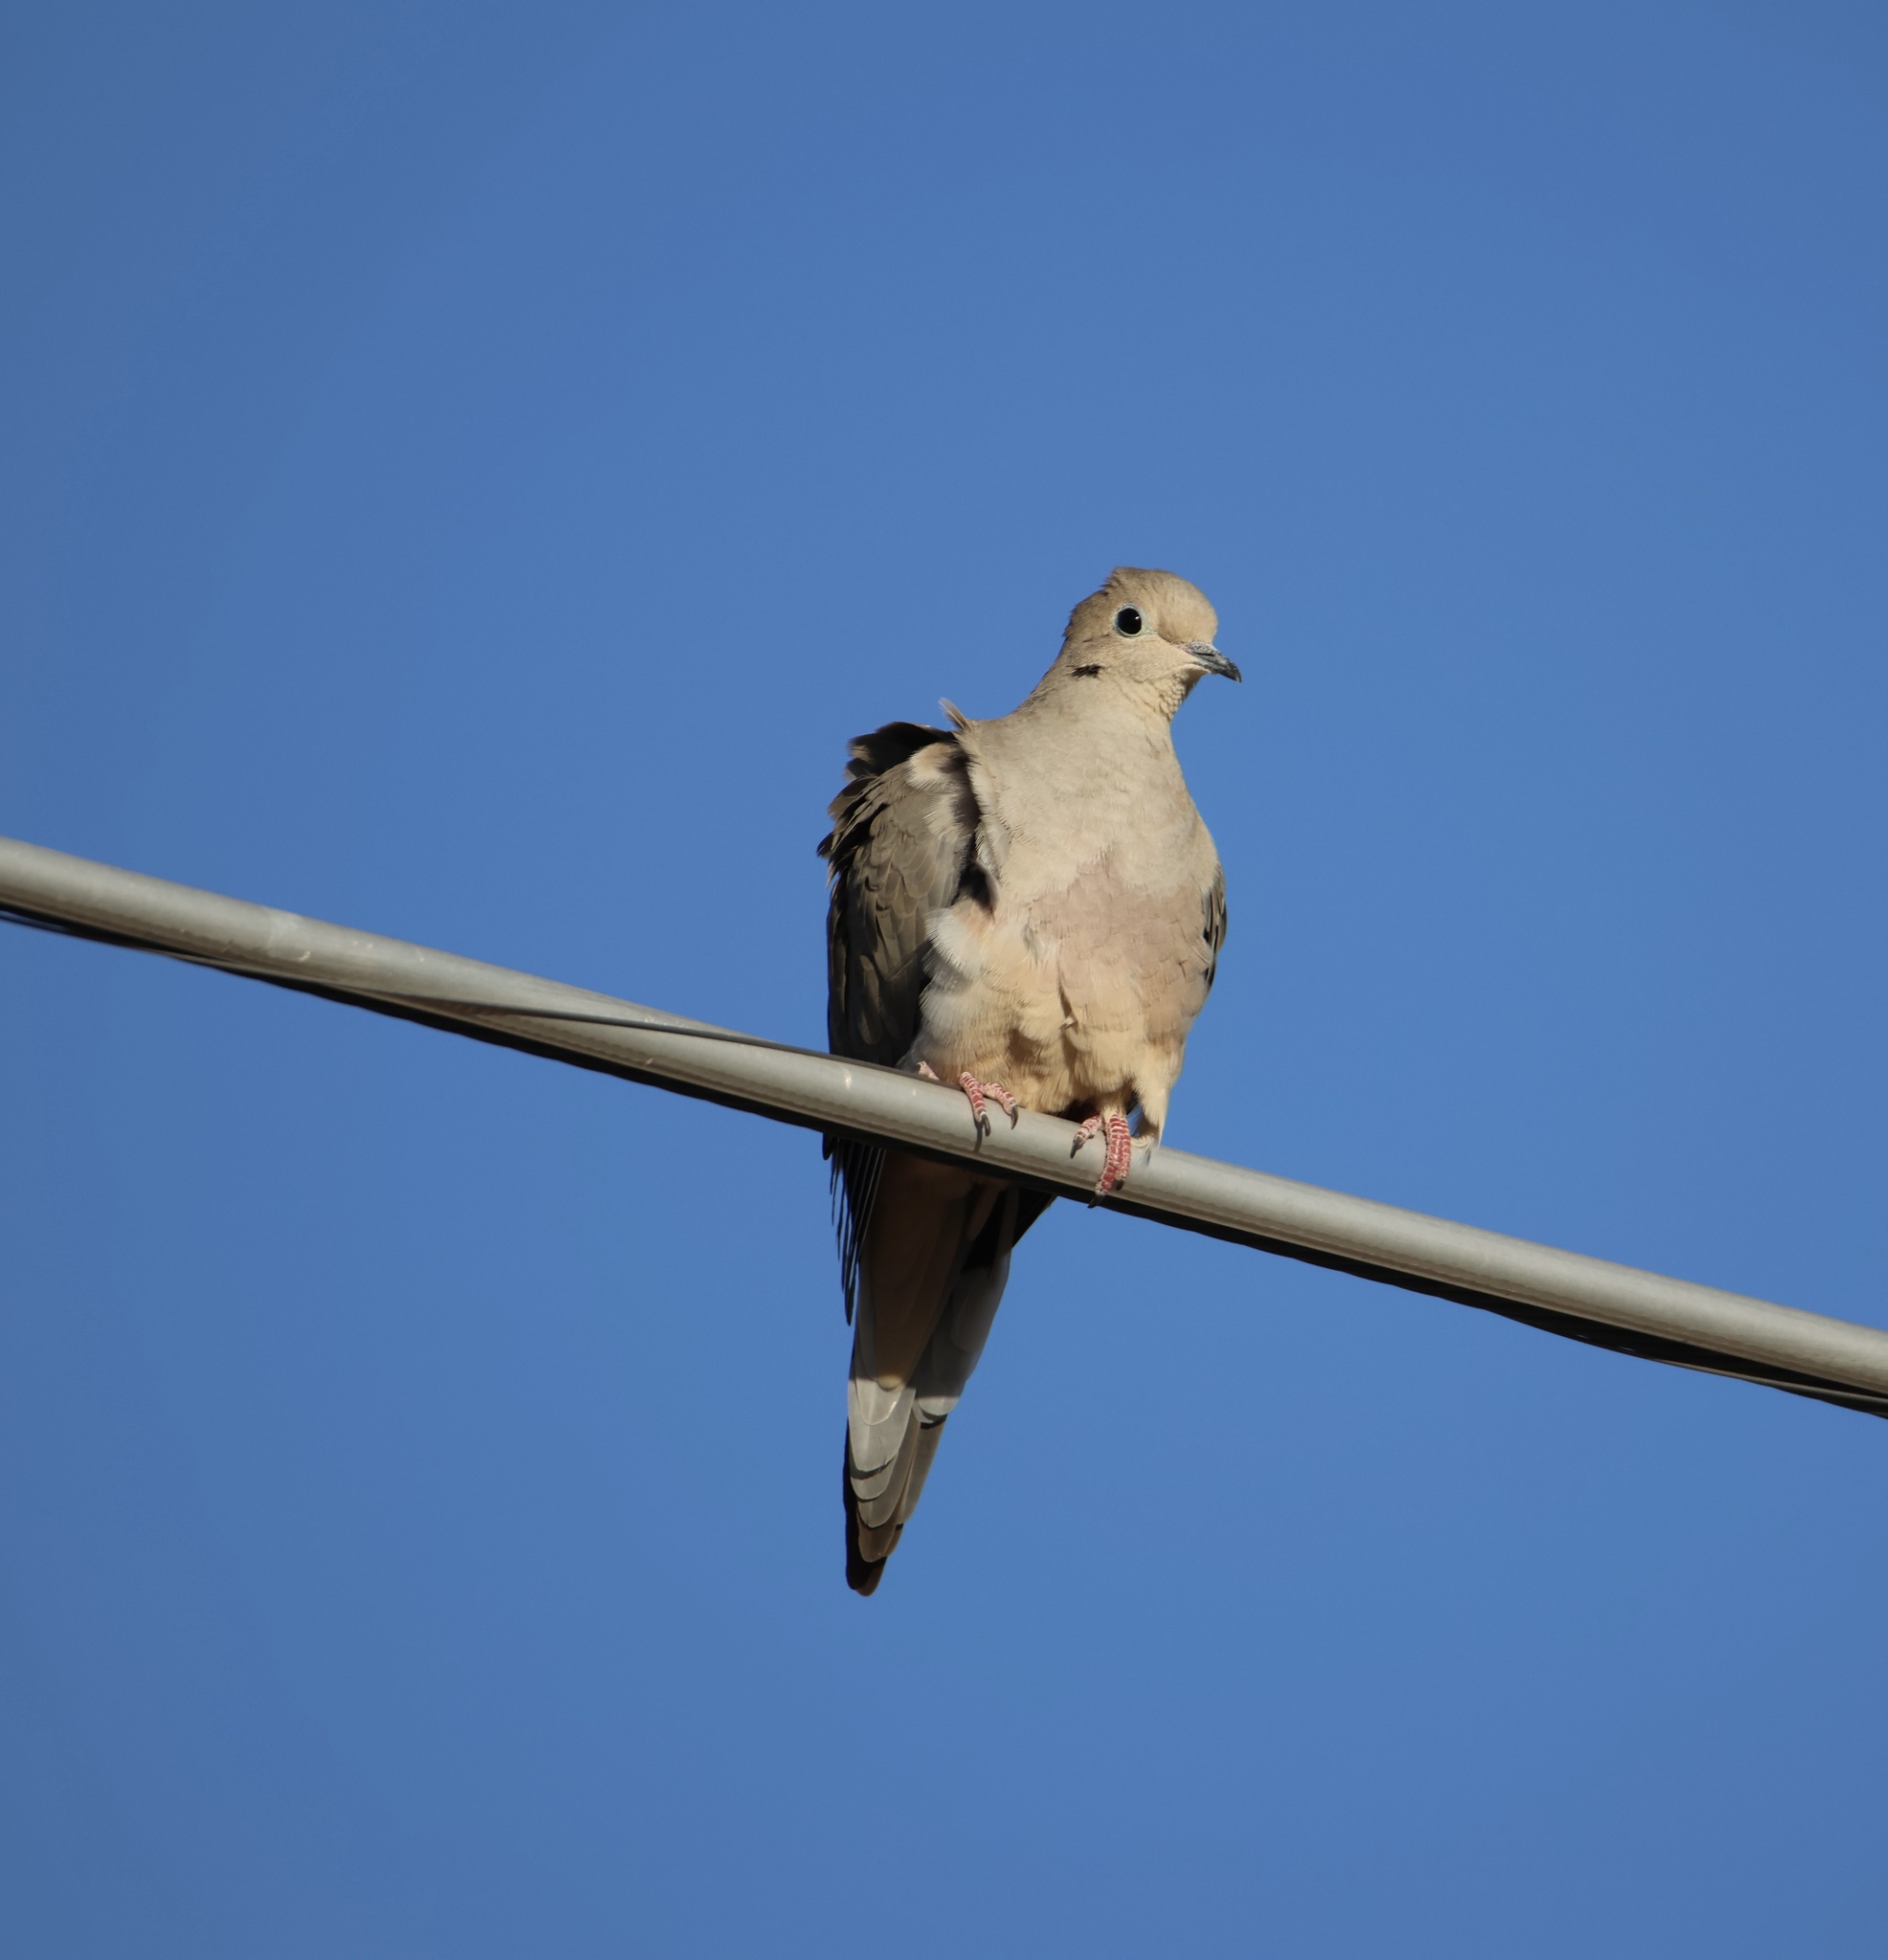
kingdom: Animalia
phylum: Chordata
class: Aves
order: Columbiformes
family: Columbidae
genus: Zenaida
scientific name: Zenaida macroura
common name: Mourning dove
